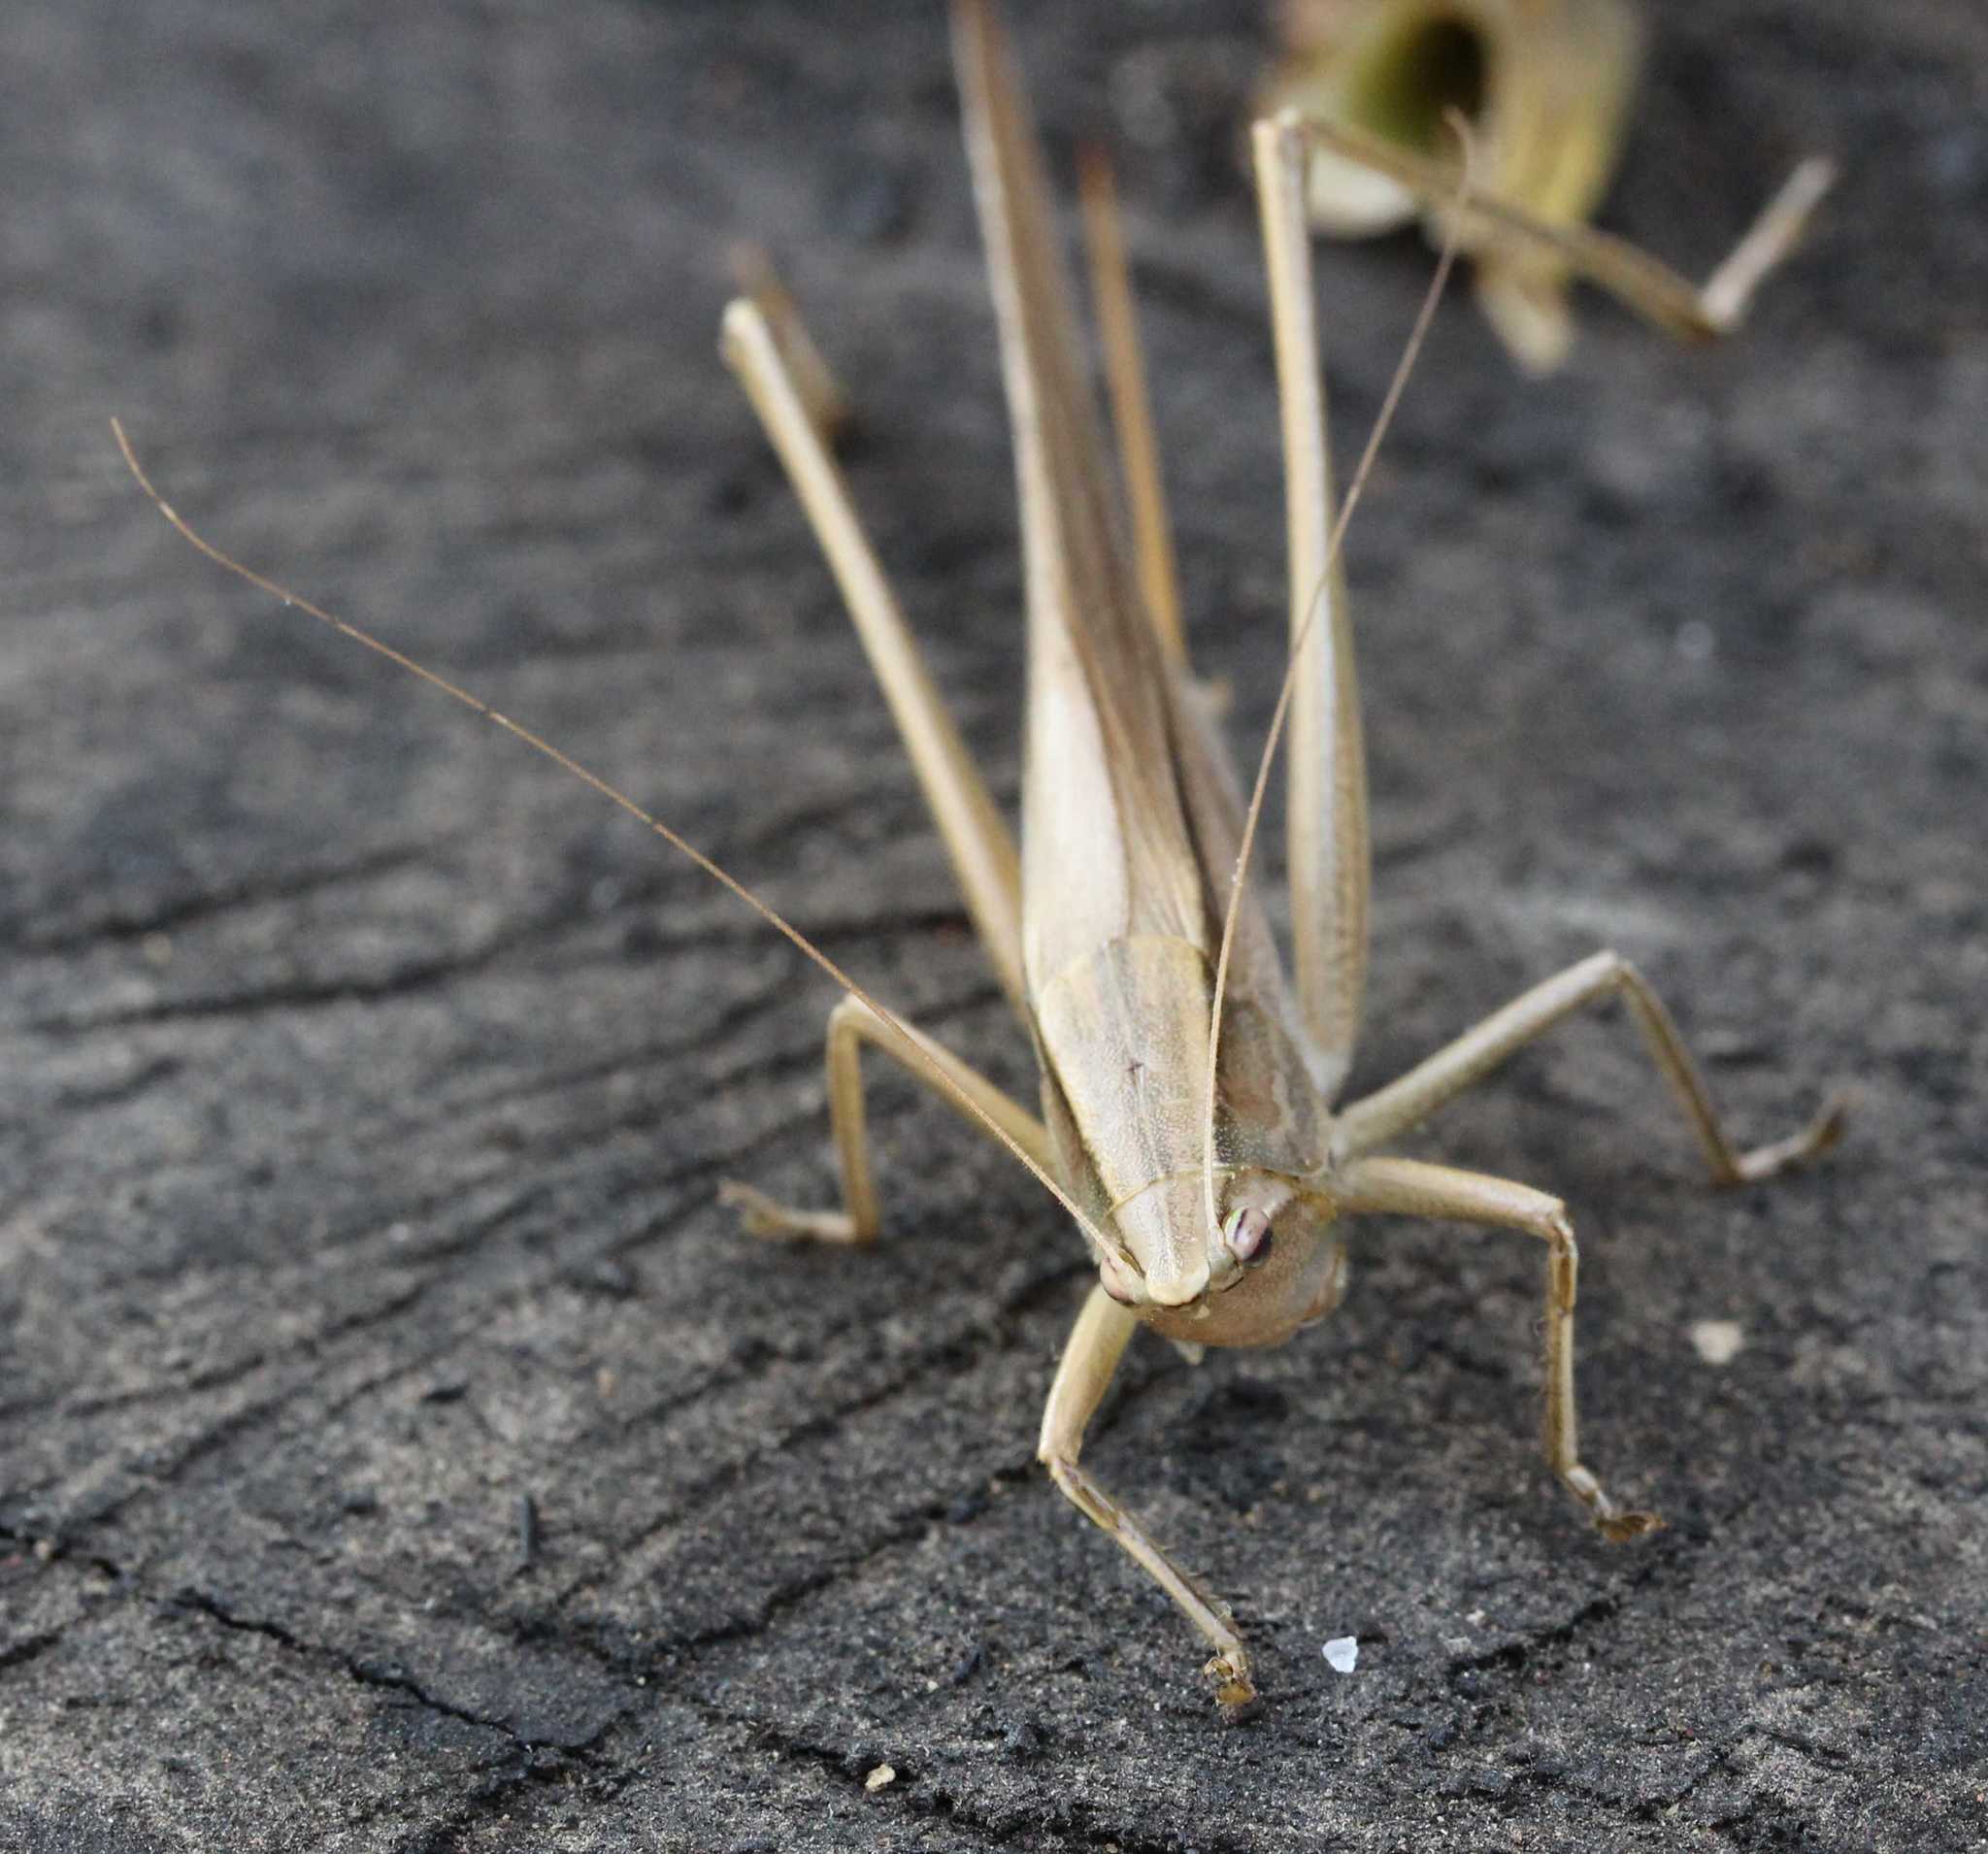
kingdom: Animalia
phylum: Arthropoda
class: Insecta
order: Orthoptera
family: Tettigoniidae
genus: Neoconocephalus
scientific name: Neoconocephalus
